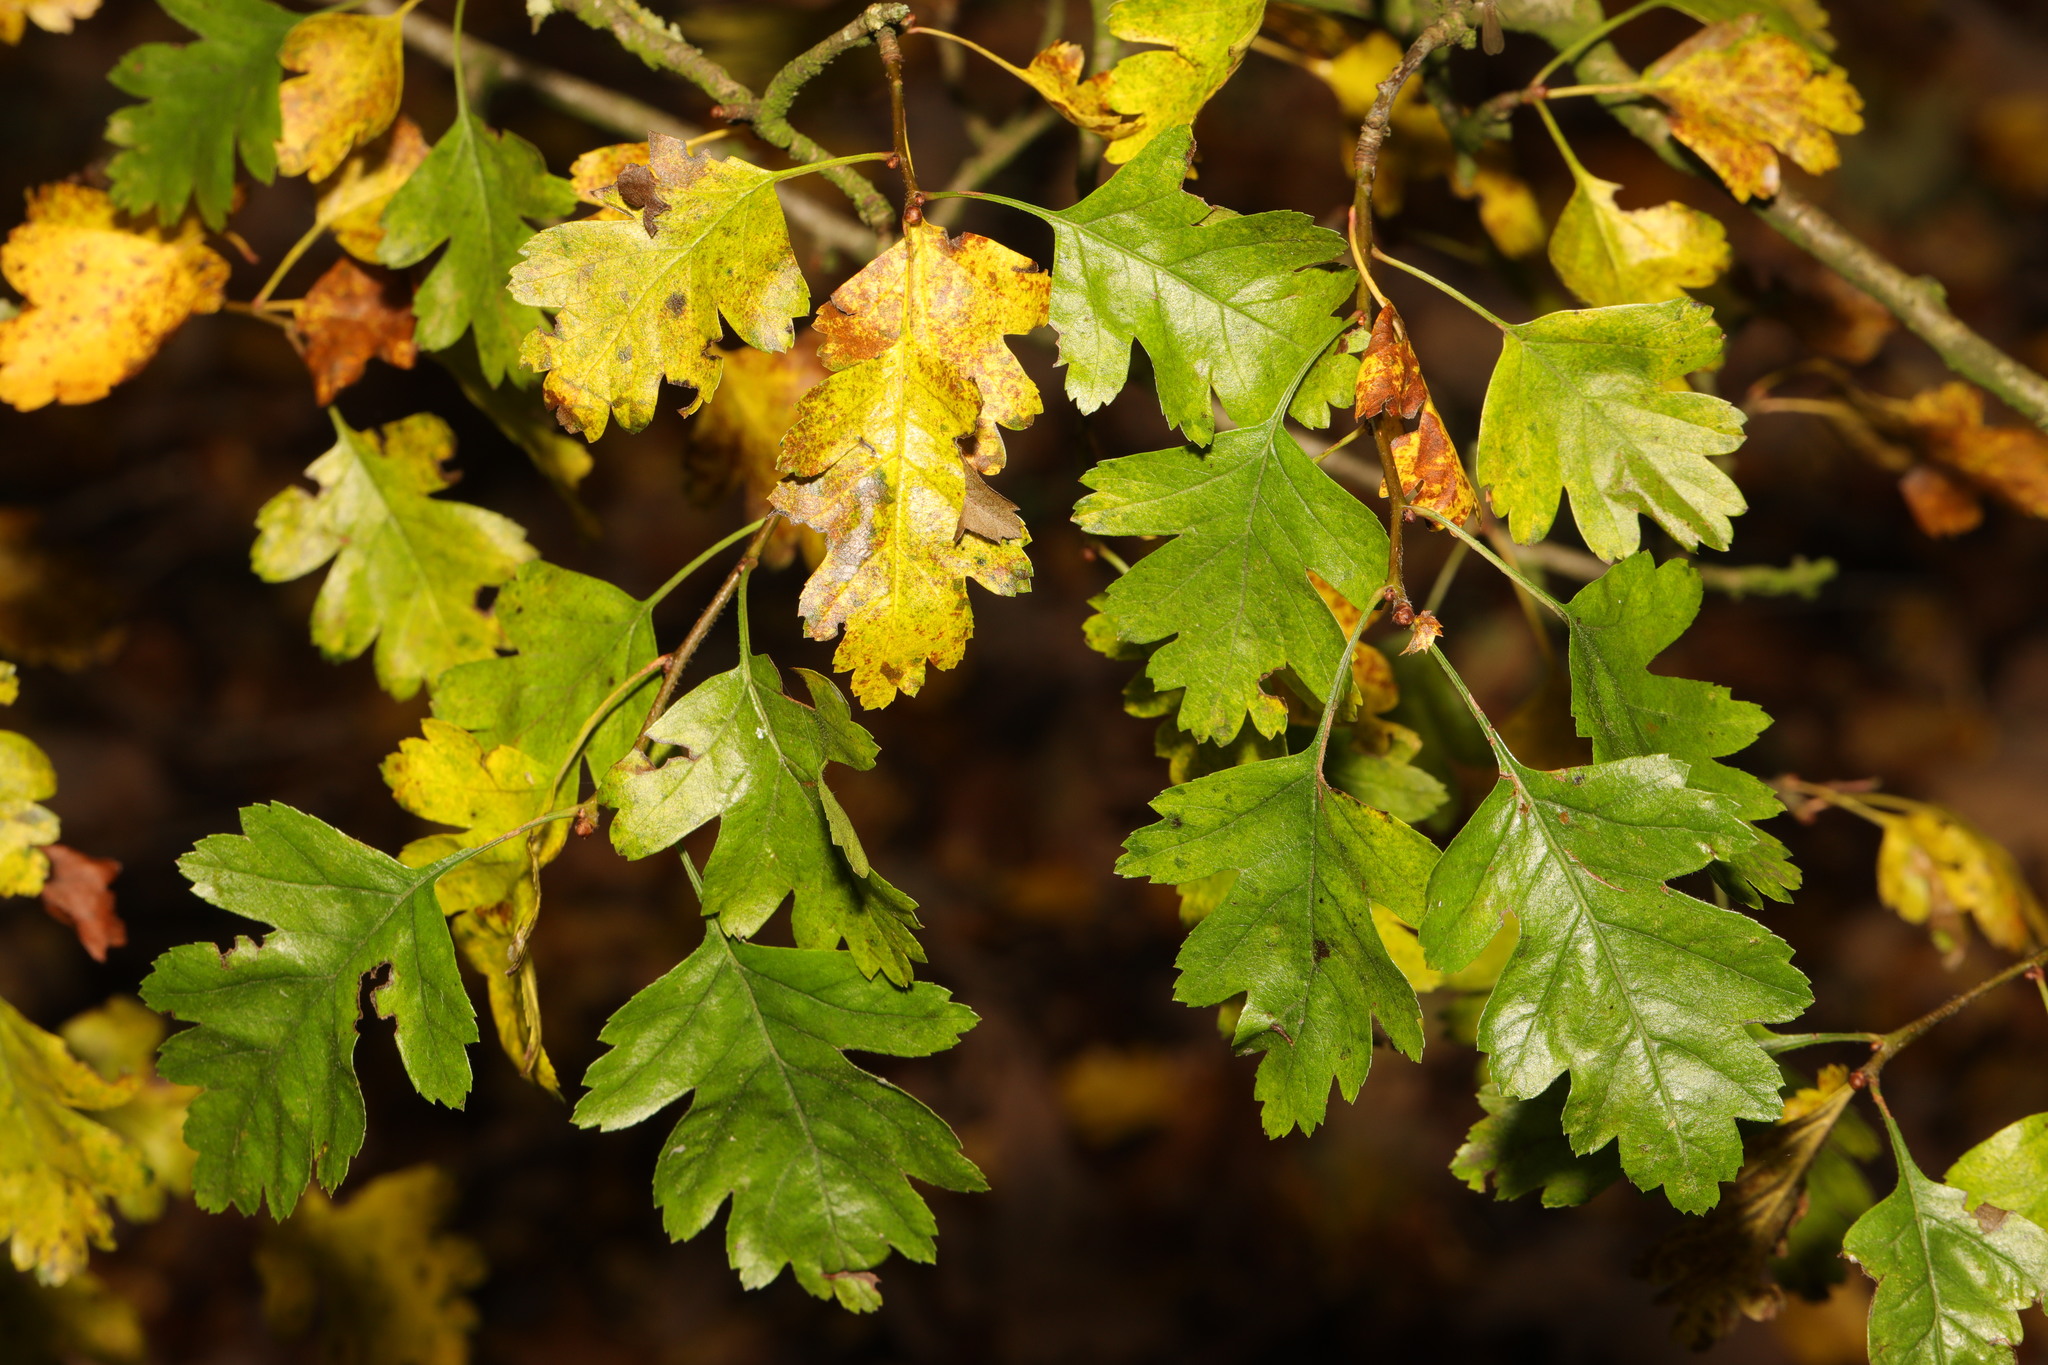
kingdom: Plantae
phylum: Tracheophyta
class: Magnoliopsida
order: Rosales
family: Rosaceae
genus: Crataegus
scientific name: Crataegus monogyna
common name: Hawthorn
